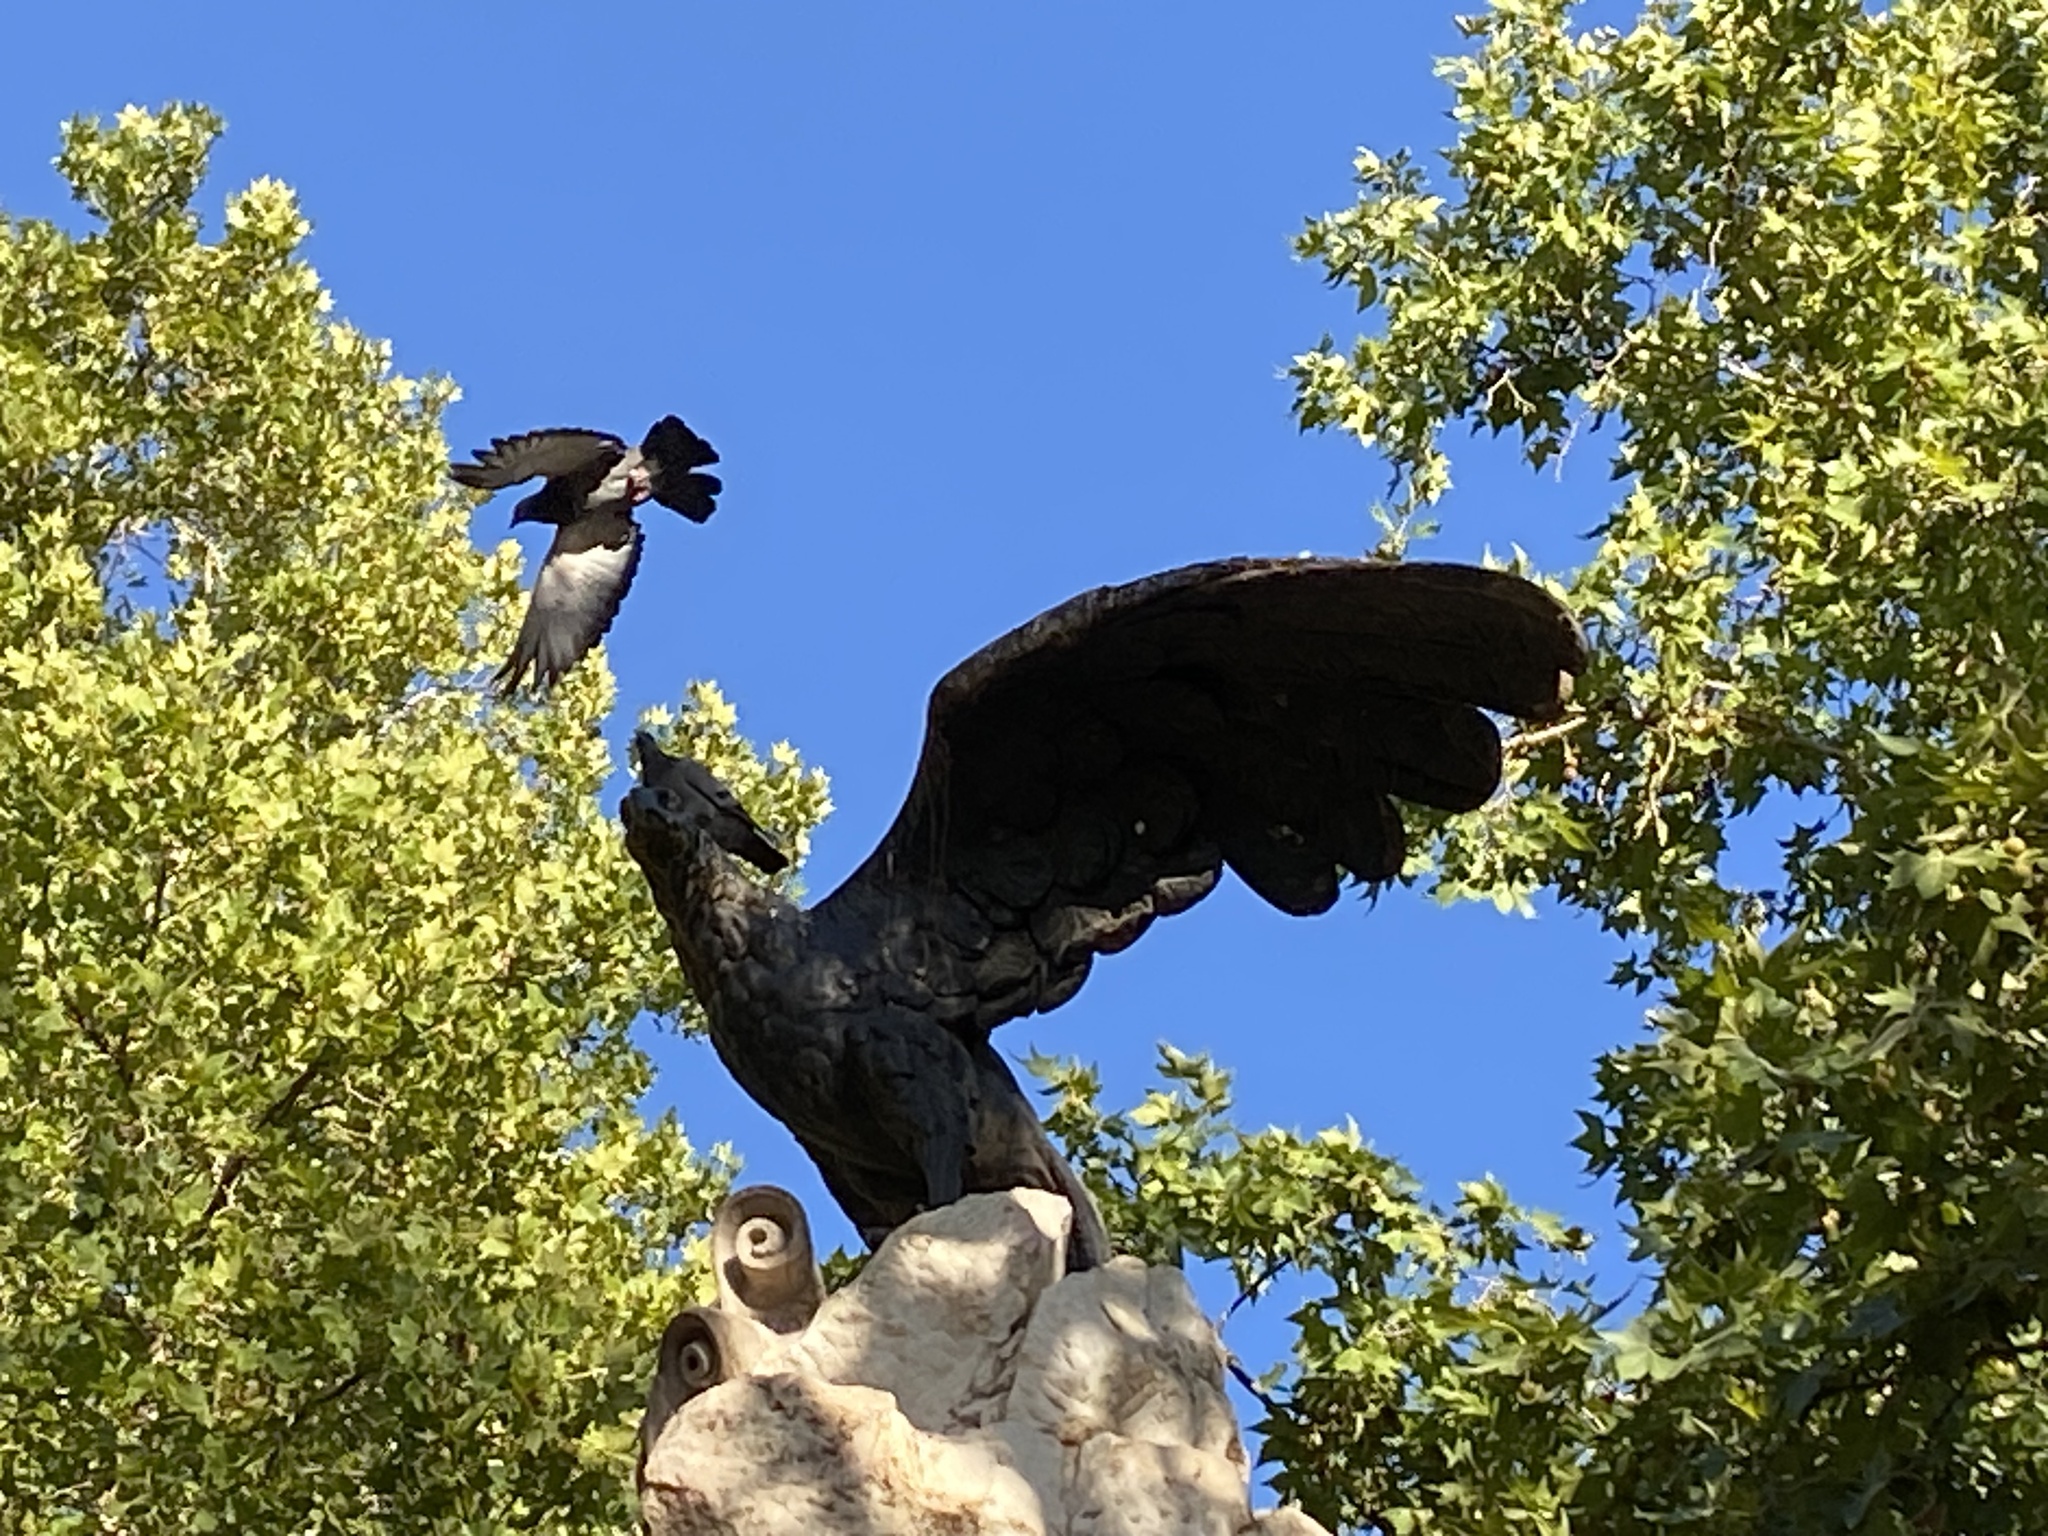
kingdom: Animalia
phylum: Chordata
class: Aves
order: Columbiformes
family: Columbidae
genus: Columba
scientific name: Columba livia
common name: Rock pigeon
